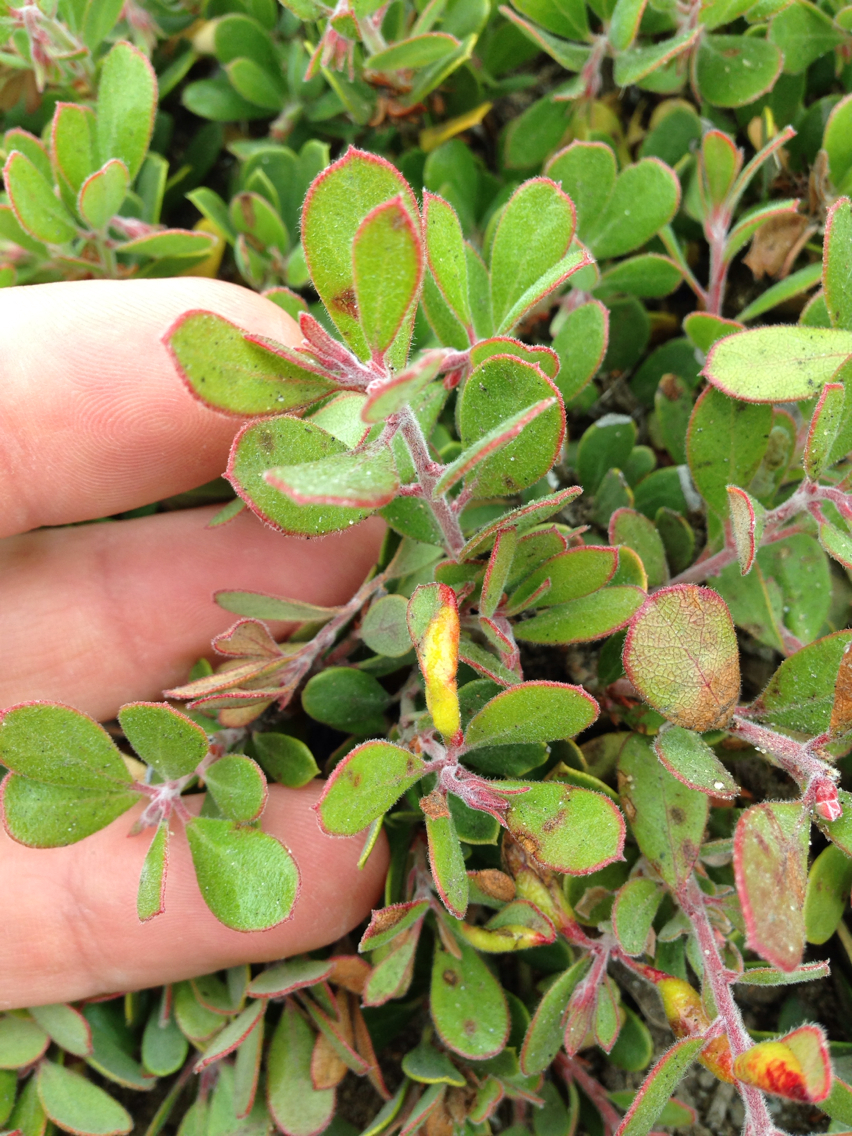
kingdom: Plantae
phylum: Tracheophyta
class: Magnoliopsida
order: Ericales
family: Ericaceae
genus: Arctostaphylos
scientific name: Arctostaphylos pumila
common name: Sandmat manzanita
